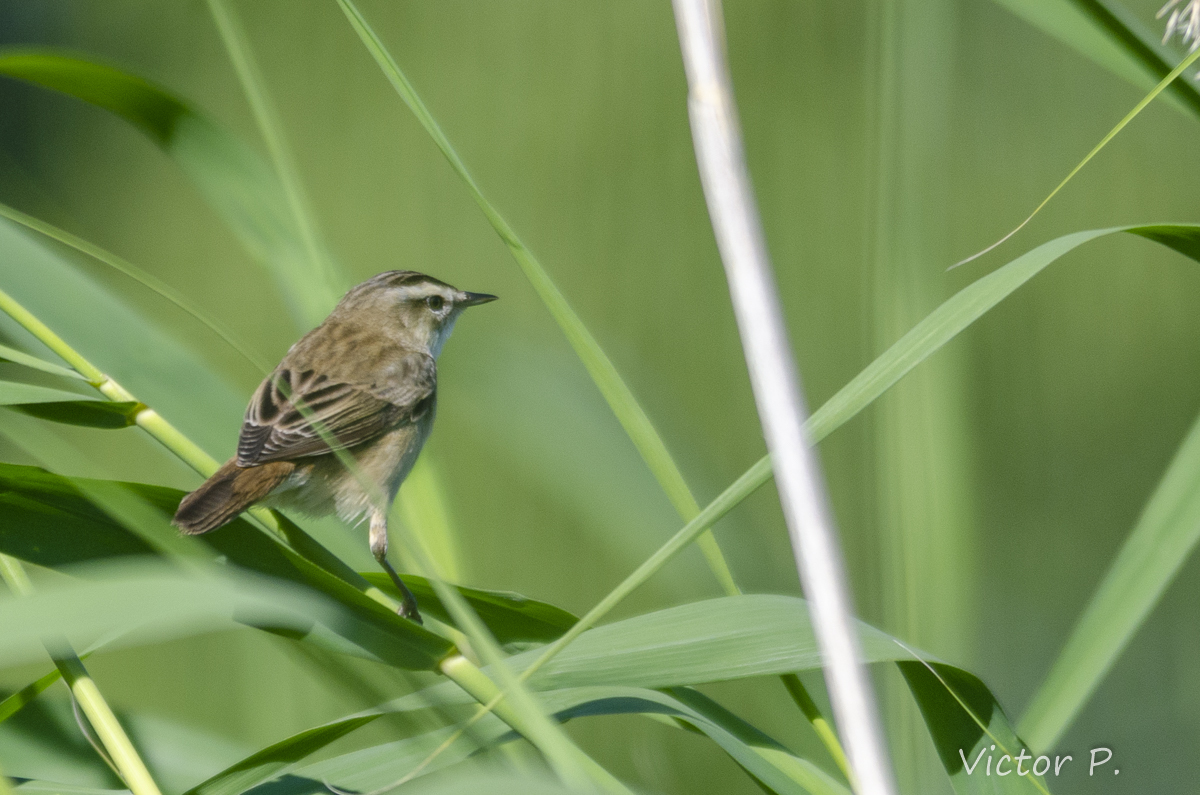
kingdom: Animalia
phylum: Chordata
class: Aves
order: Passeriformes
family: Acrocephalidae
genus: Acrocephalus
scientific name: Acrocephalus schoenobaenus
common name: Sedge warbler
